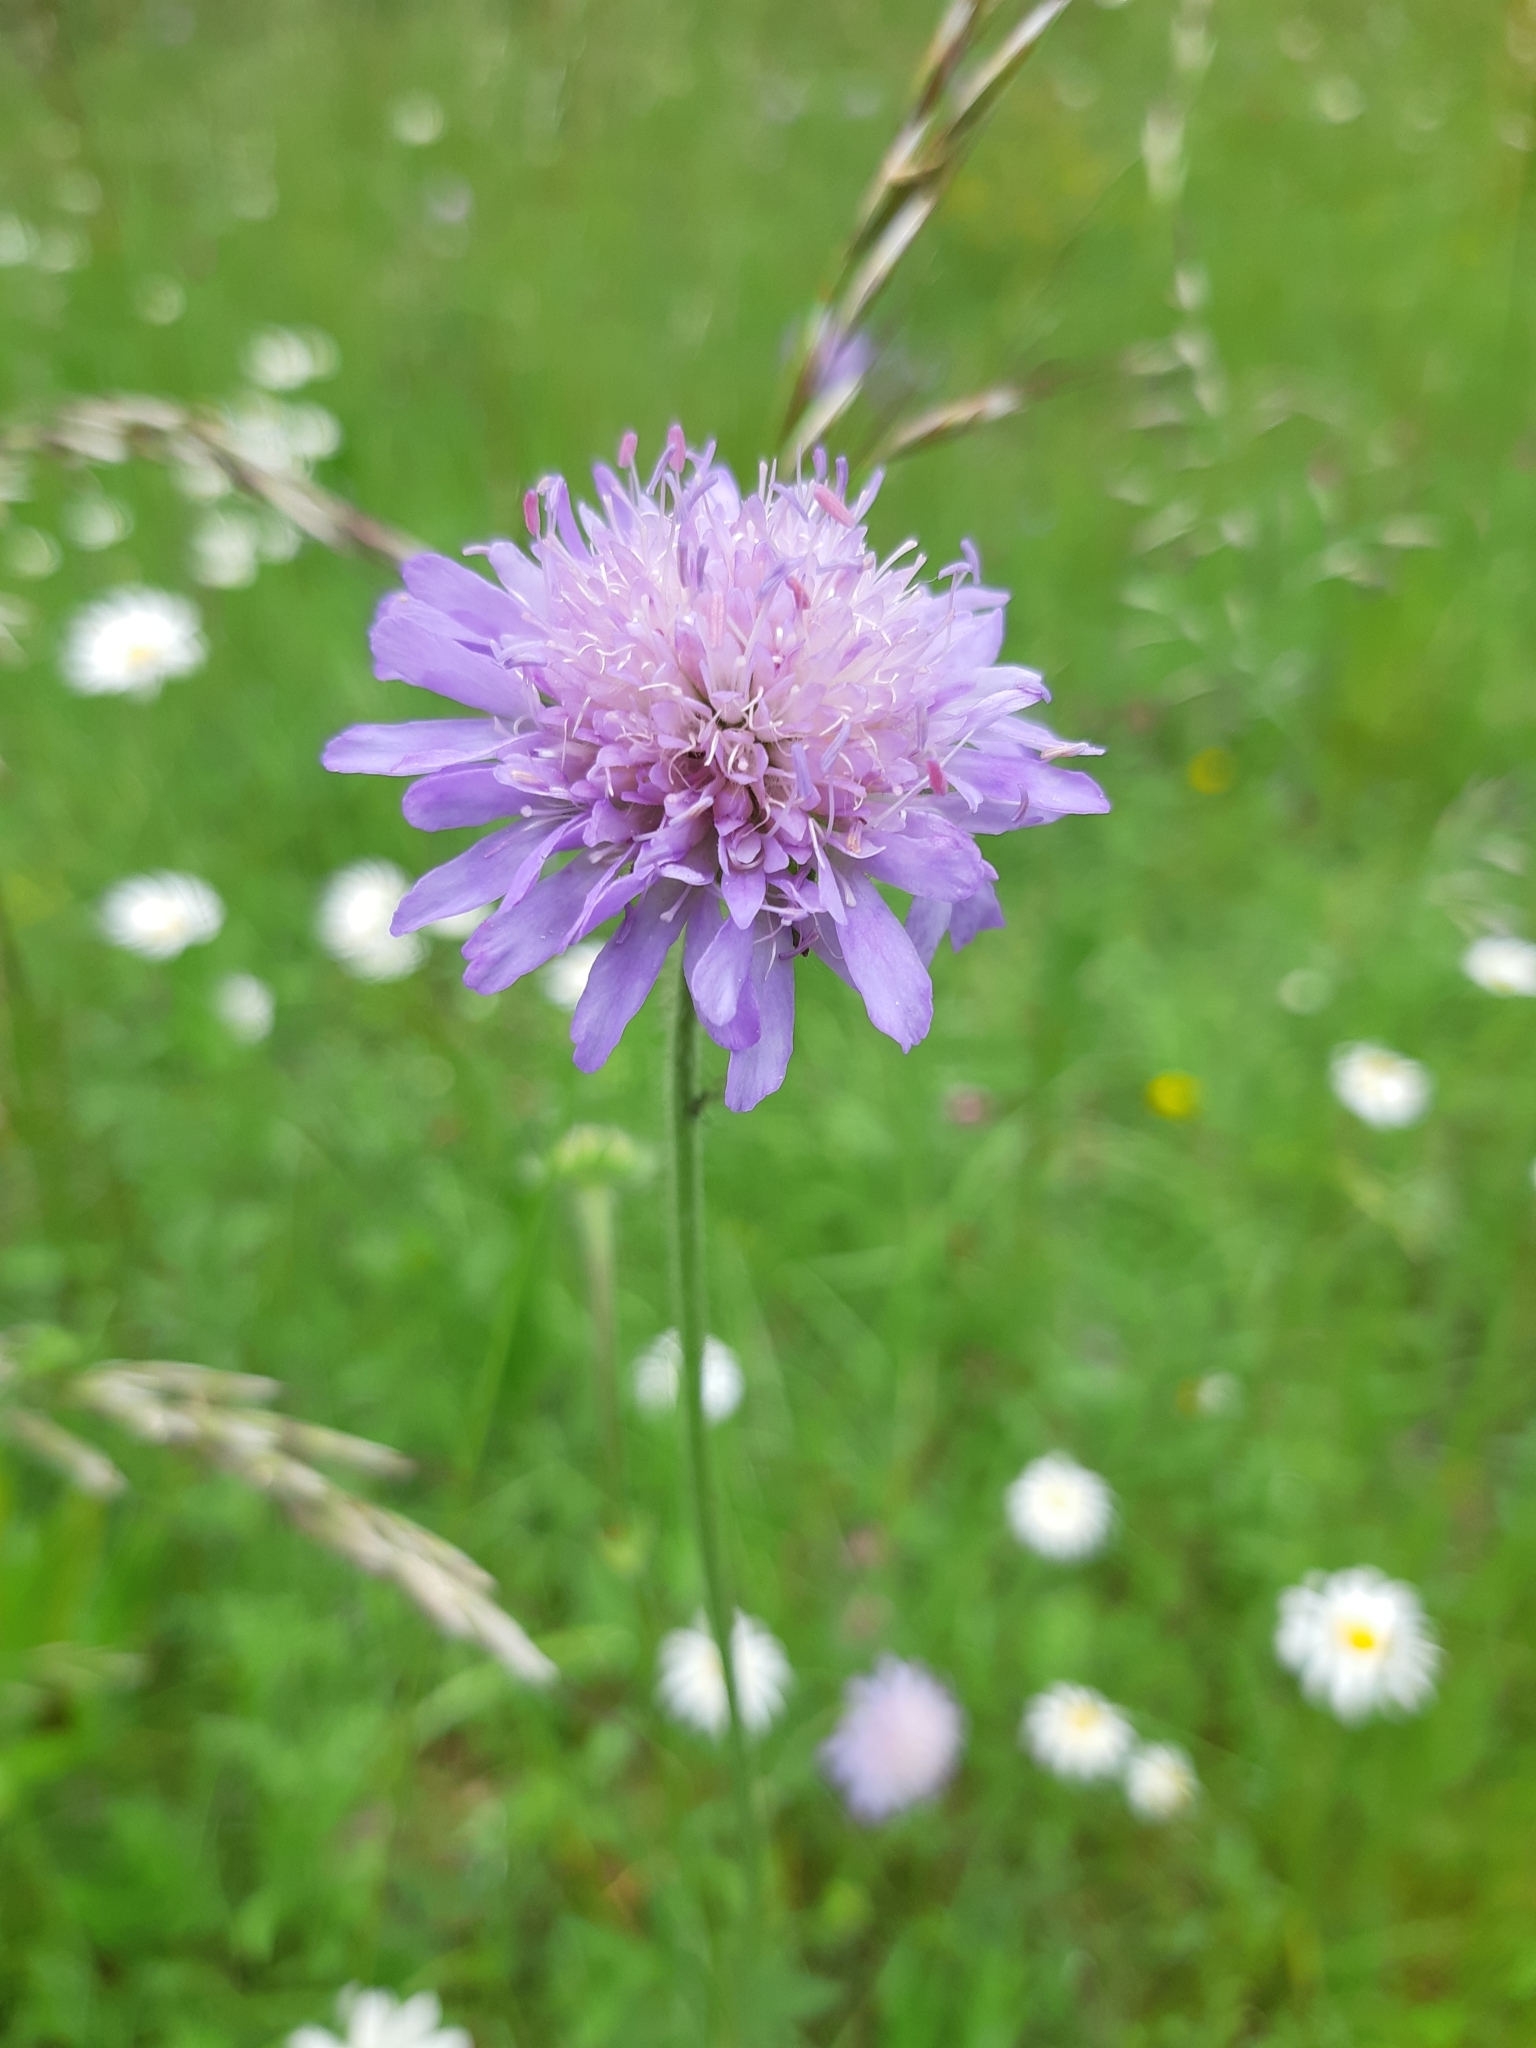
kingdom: Plantae
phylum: Tracheophyta
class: Magnoliopsida
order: Dipsacales
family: Caprifoliaceae
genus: Knautia
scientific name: Knautia arvensis
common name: Field scabiosa
